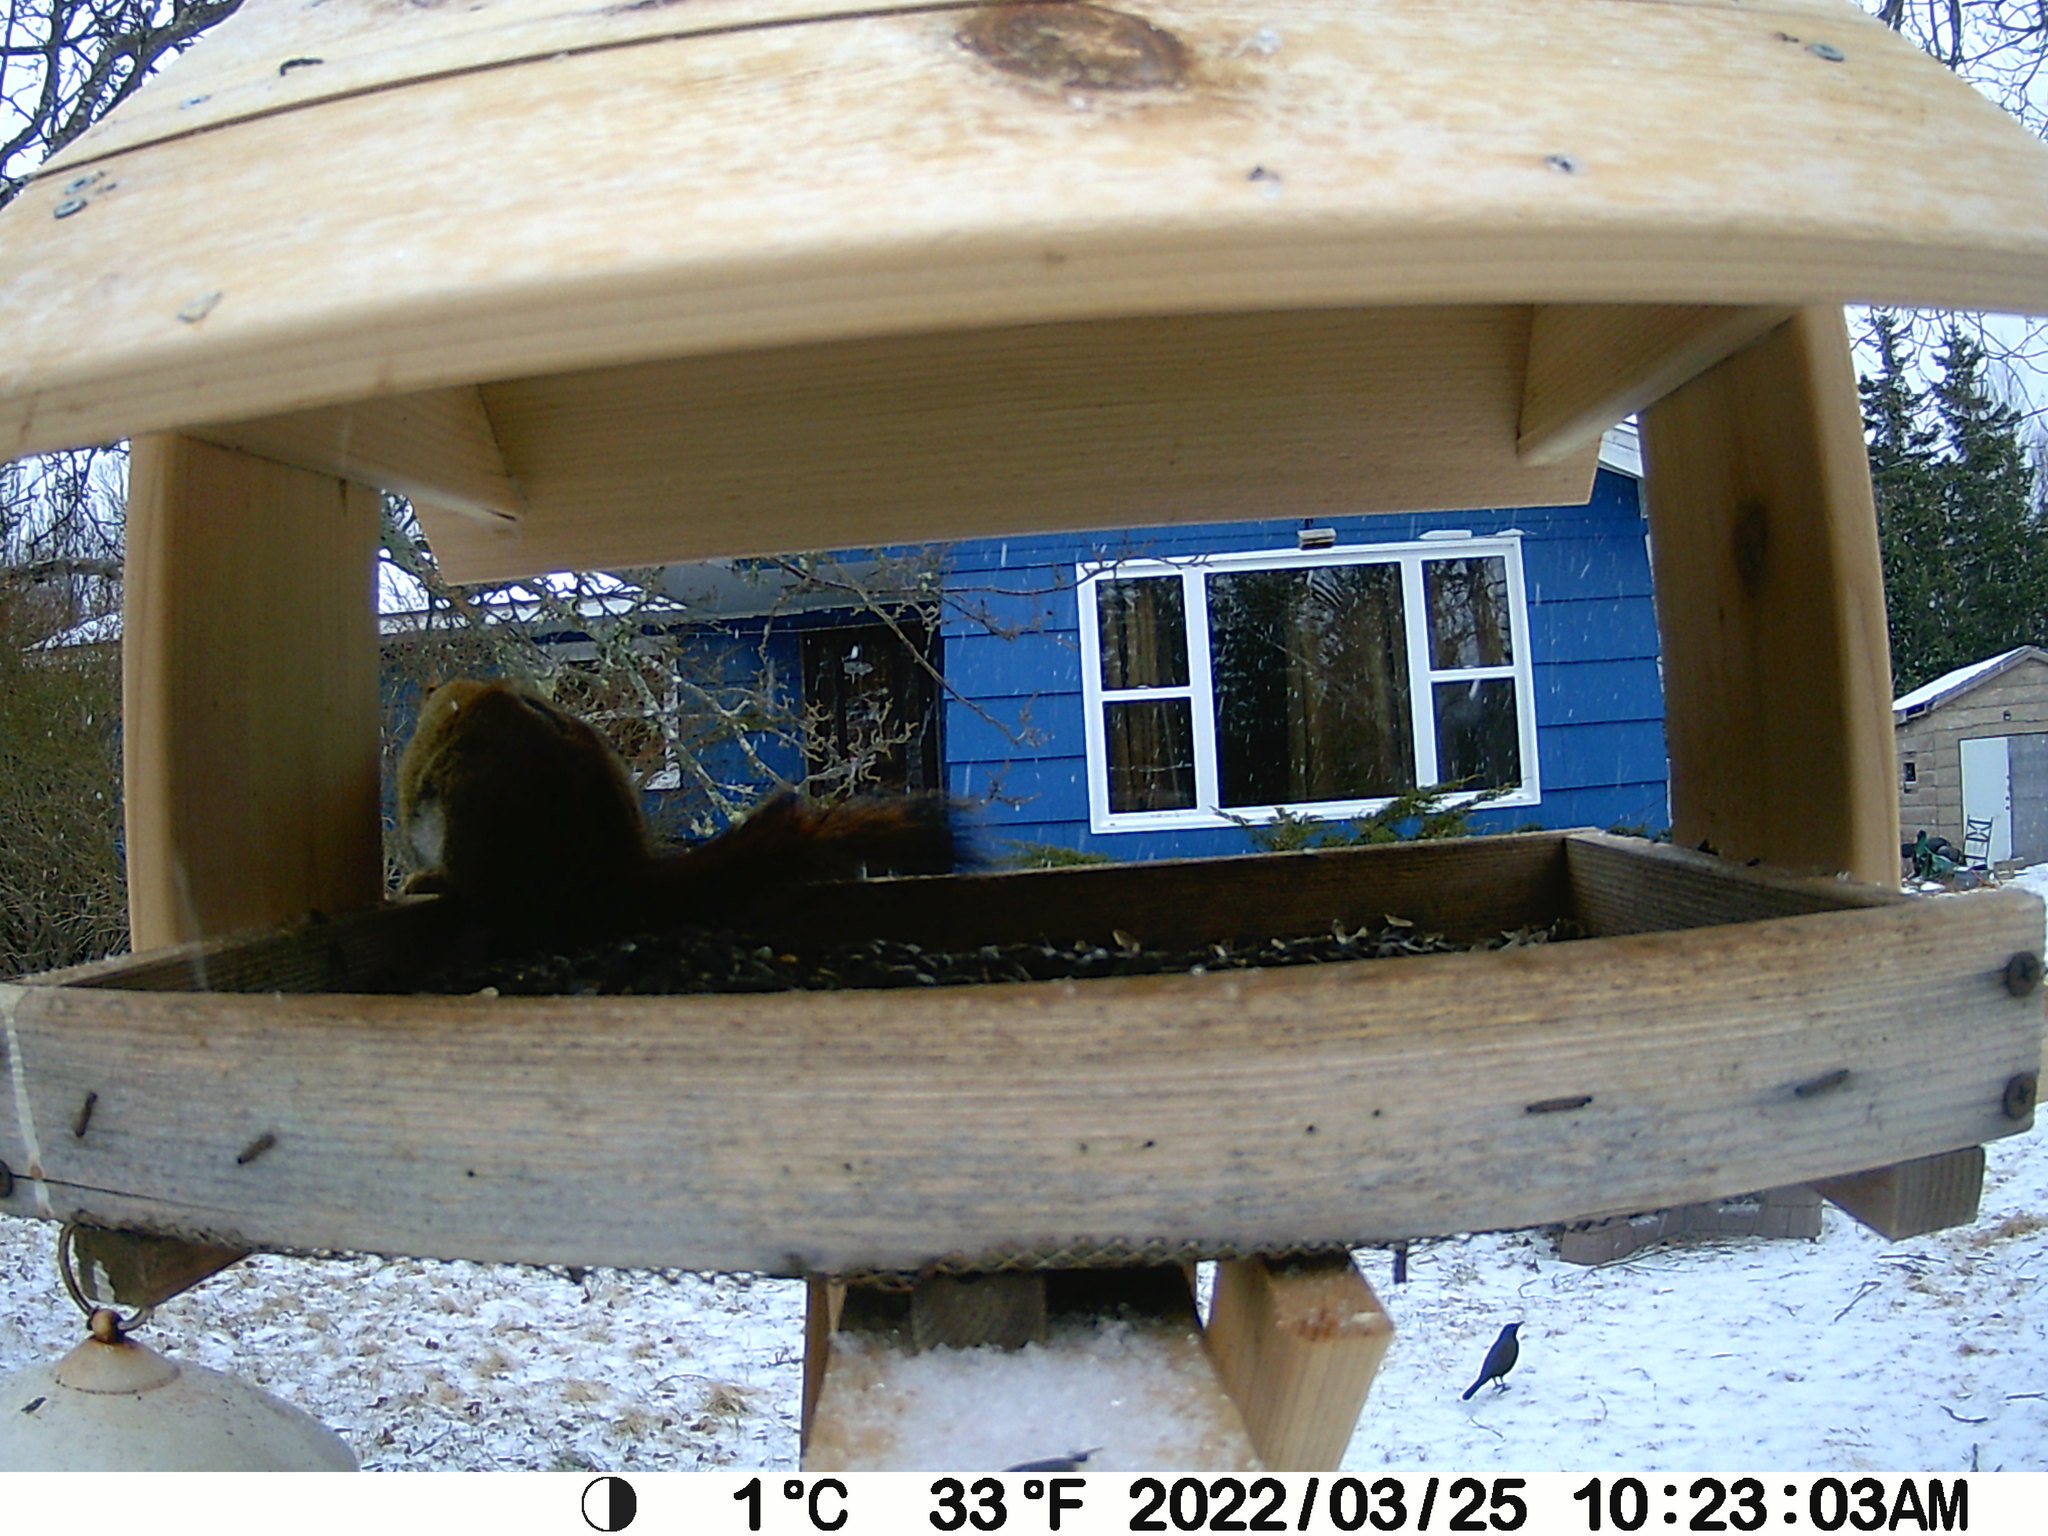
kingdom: Animalia
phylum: Chordata
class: Aves
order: Passeriformes
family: Icteridae
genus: Quiscalus
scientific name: Quiscalus quiscula
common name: Common grackle
